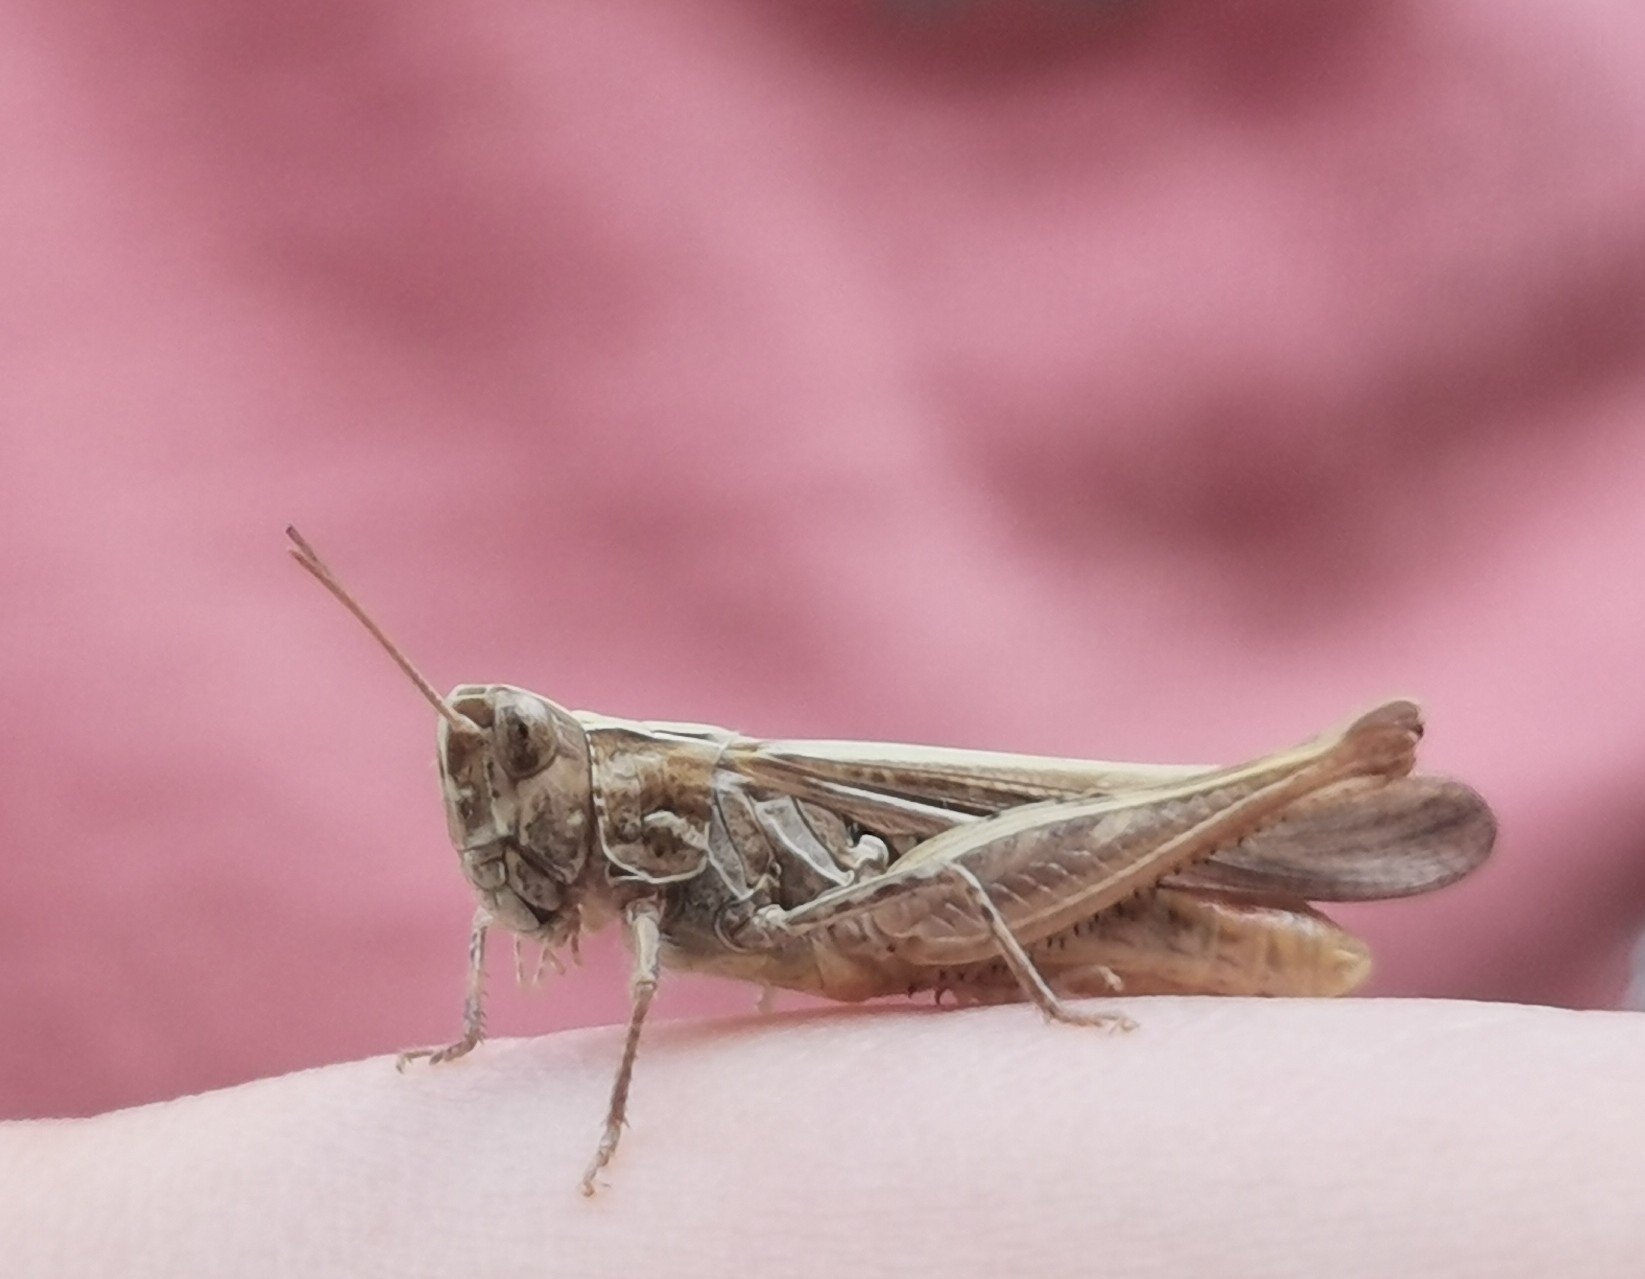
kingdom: Animalia
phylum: Arthropoda
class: Insecta
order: Orthoptera
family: Acrididae
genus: Chorthippus
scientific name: Chorthippus brunneus
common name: Field grasshopper
